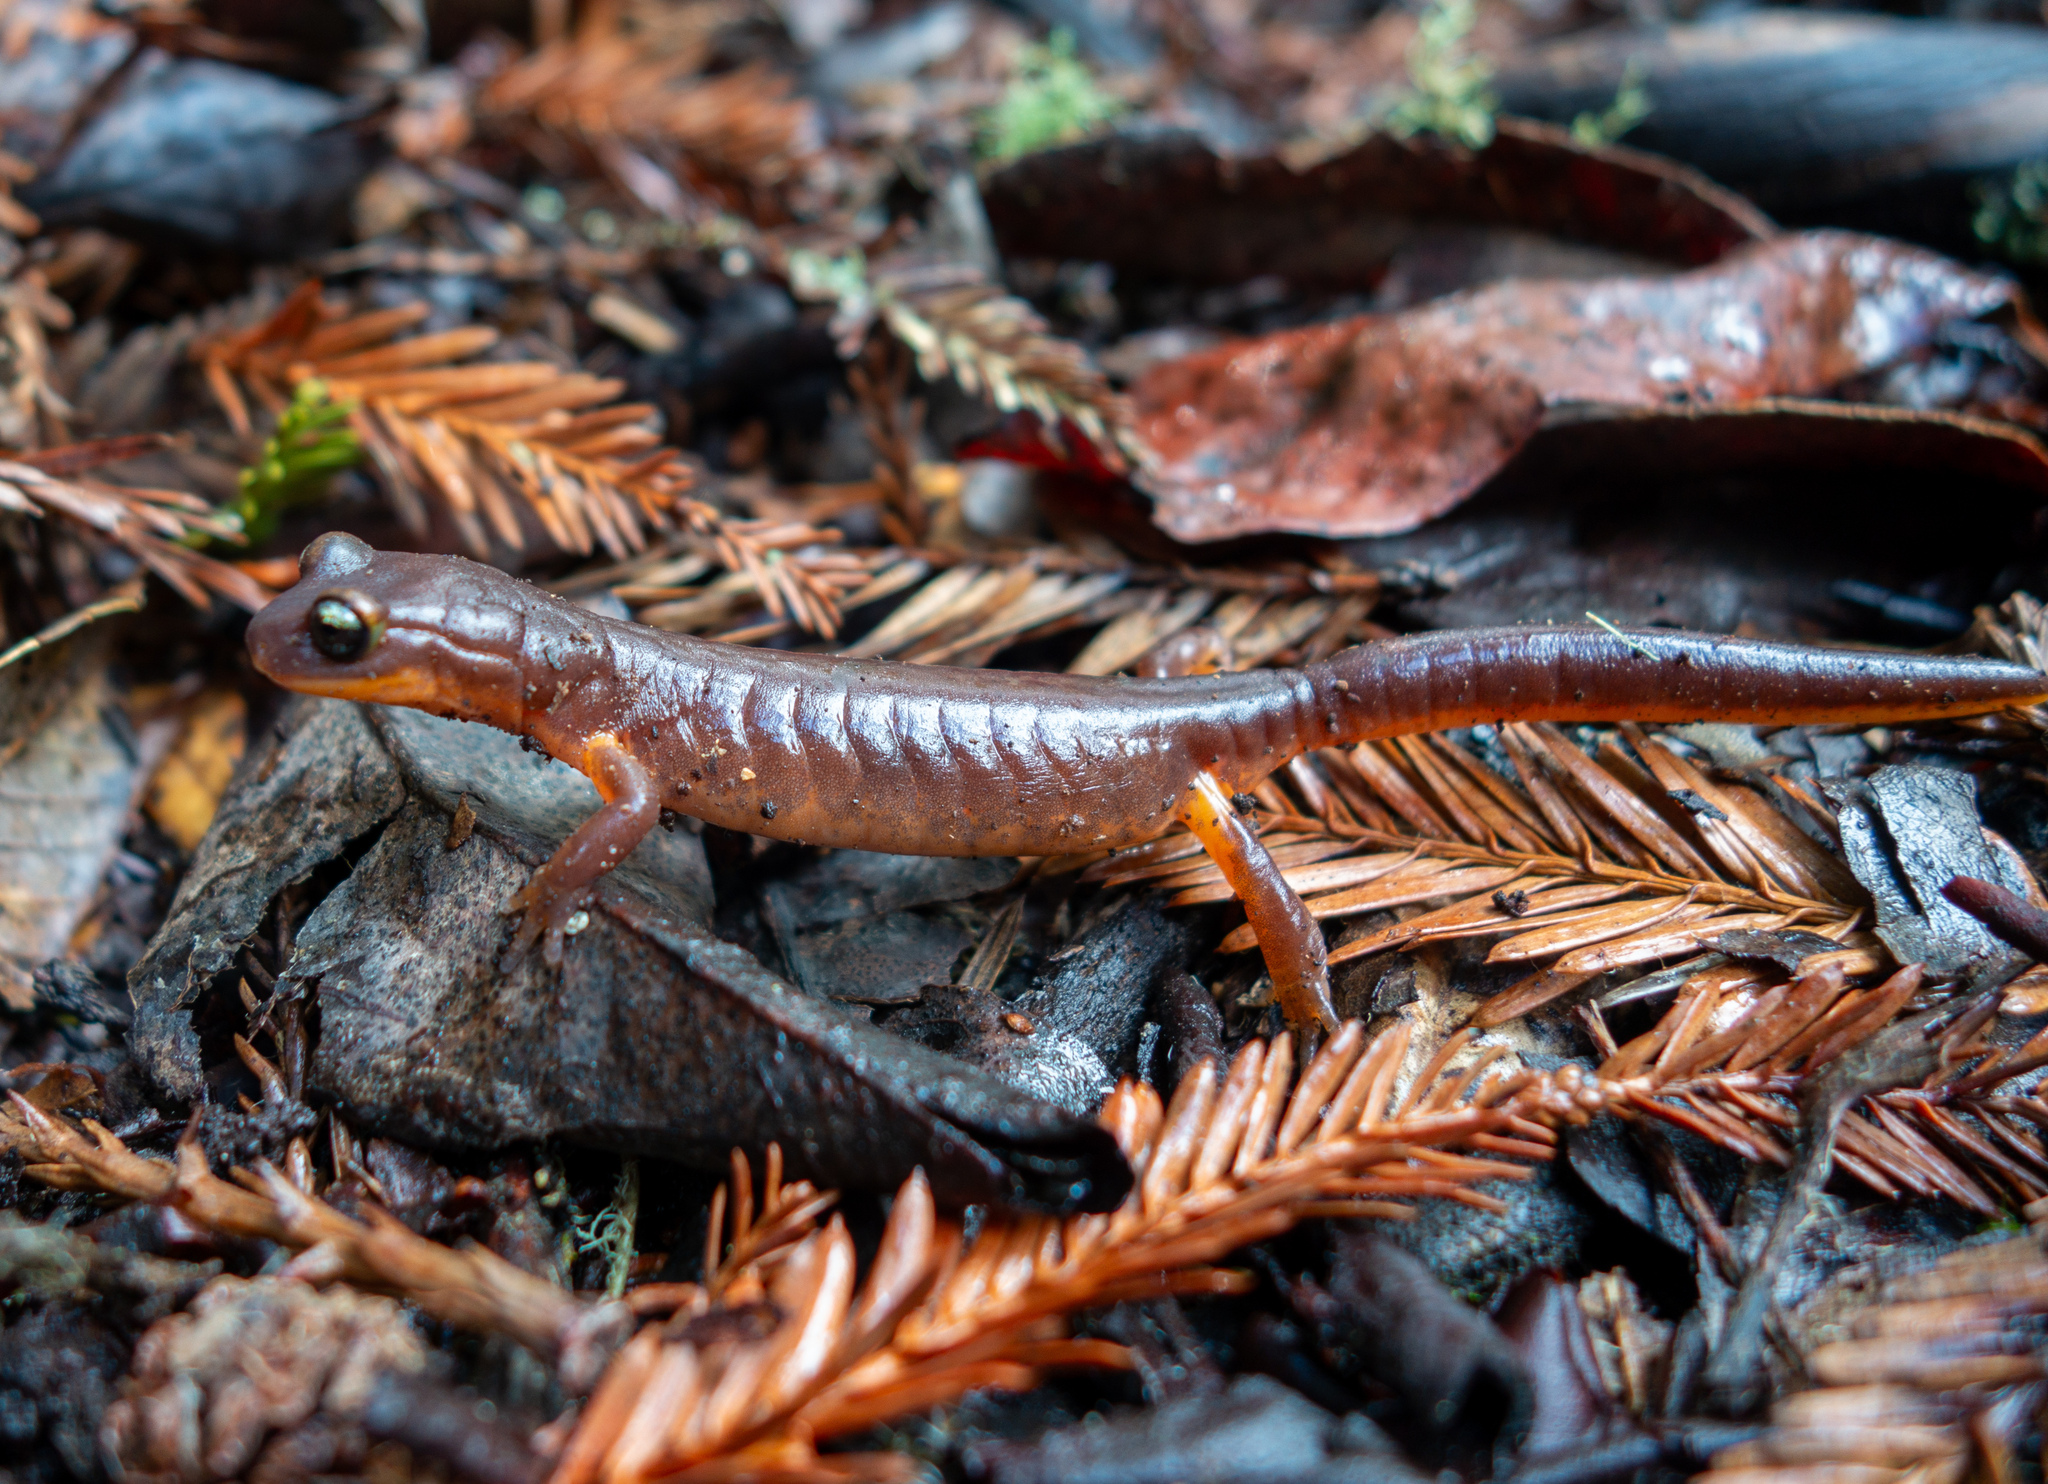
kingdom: Animalia
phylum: Chordata
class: Amphibia
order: Caudata
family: Plethodontidae
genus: Ensatina
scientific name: Ensatina eschscholtzii
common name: Ensatina
